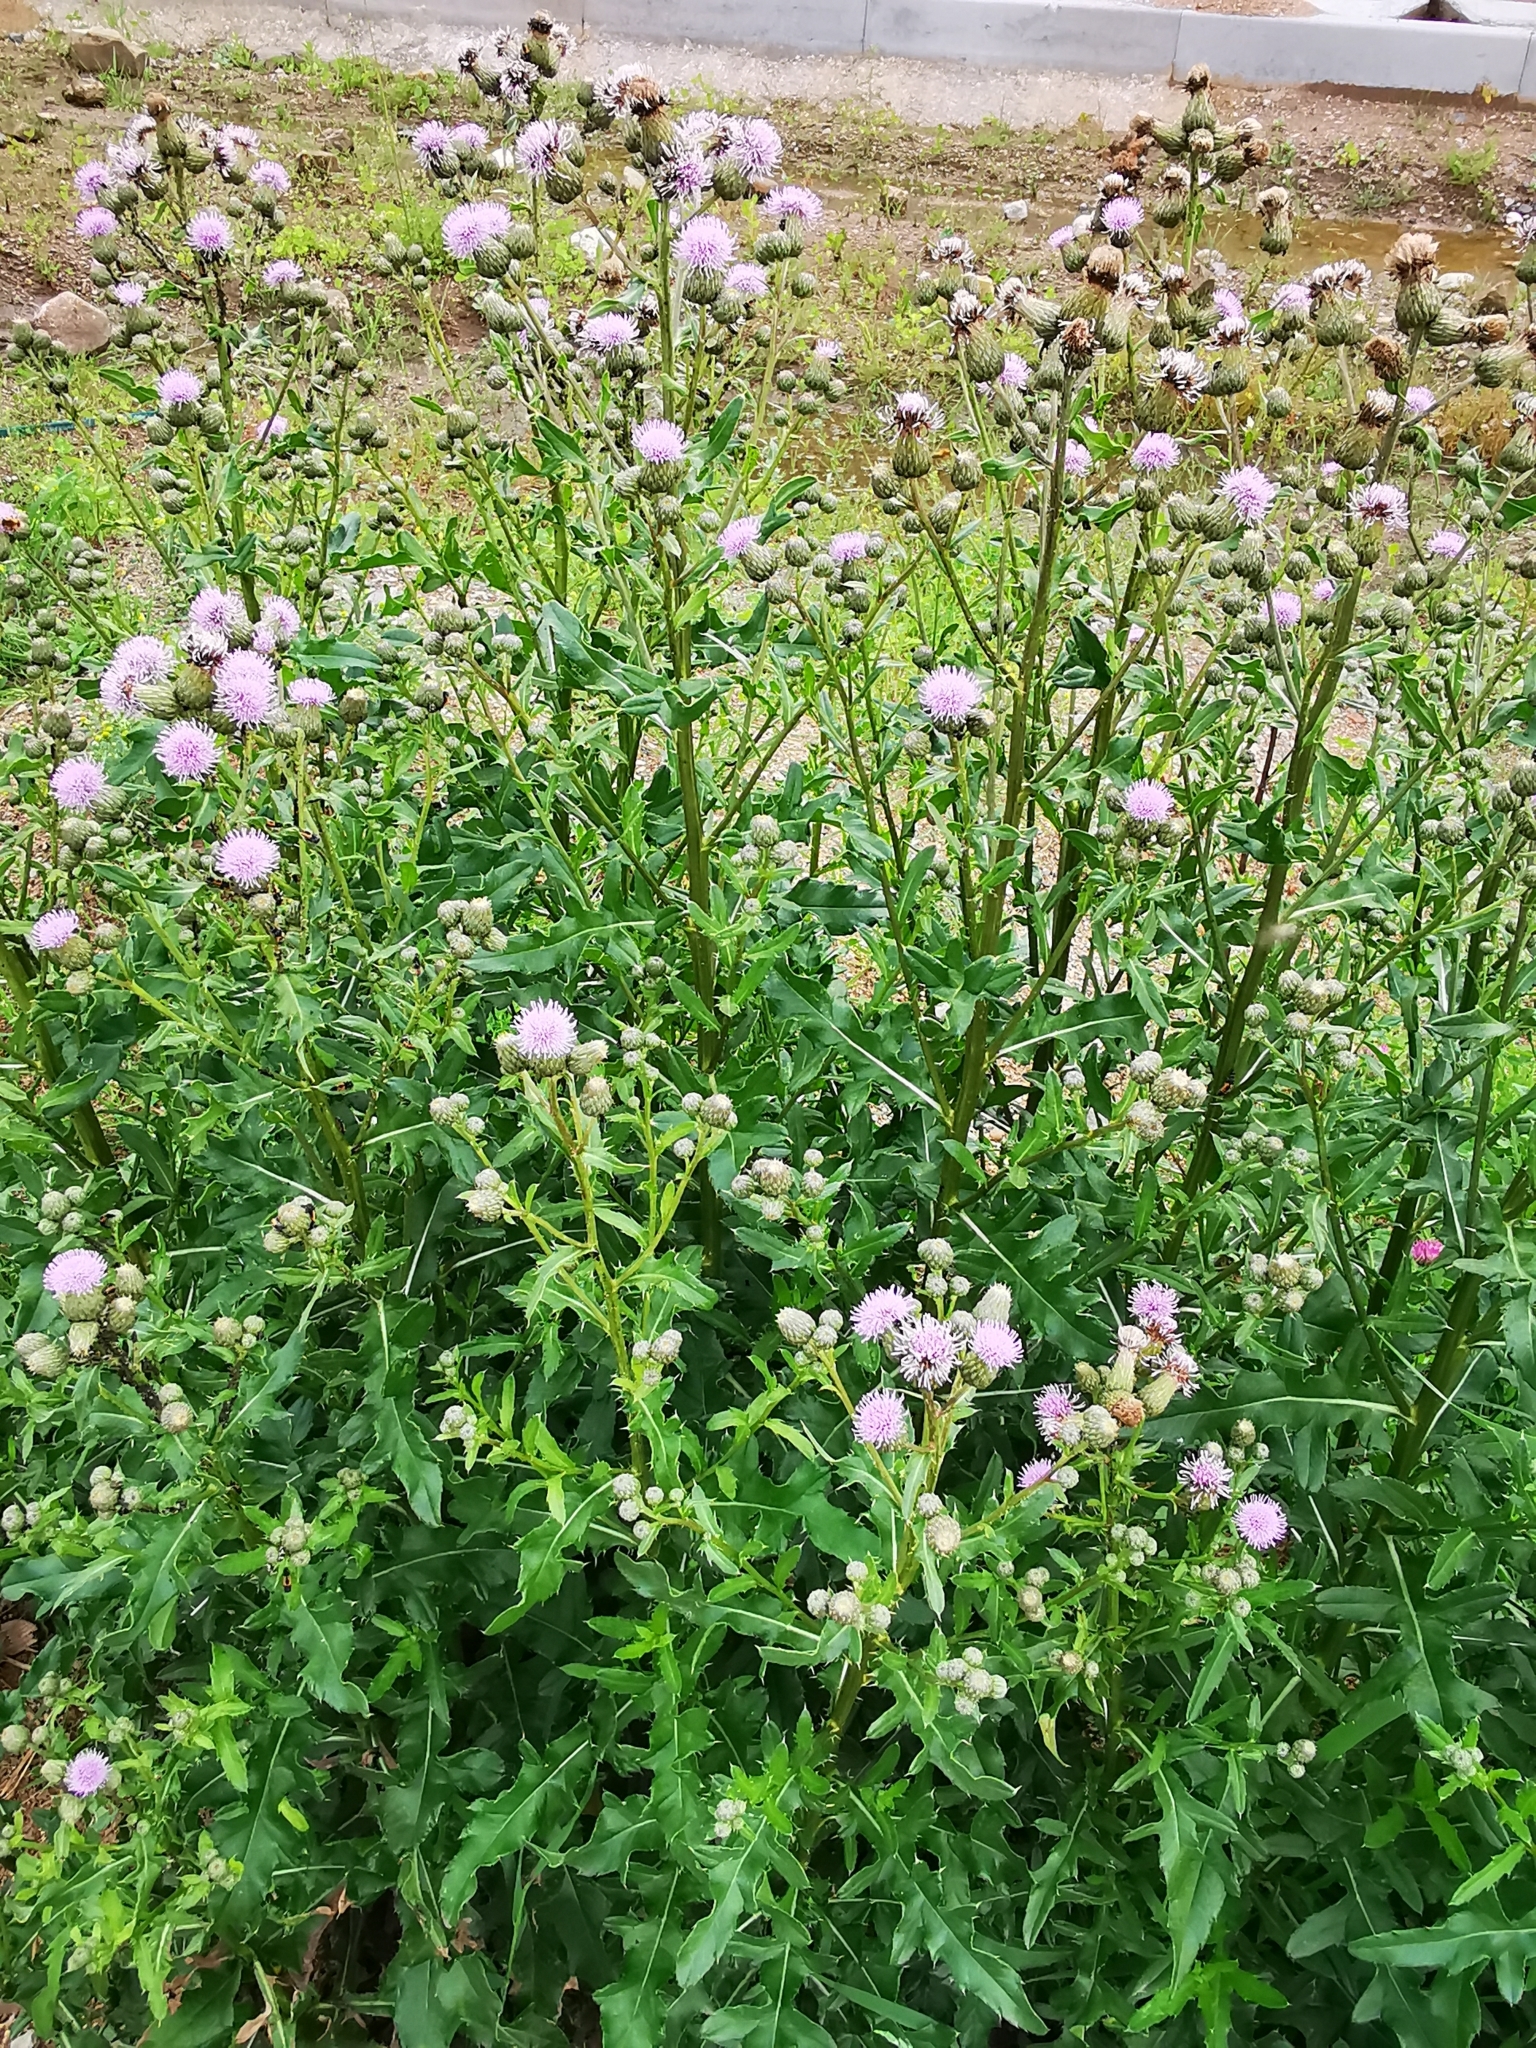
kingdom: Plantae
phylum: Tracheophyta
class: Magnoliopsida
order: Asterales
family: Asteraceae
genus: Cirsium
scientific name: Cirsium arvense
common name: Creeping thistle
